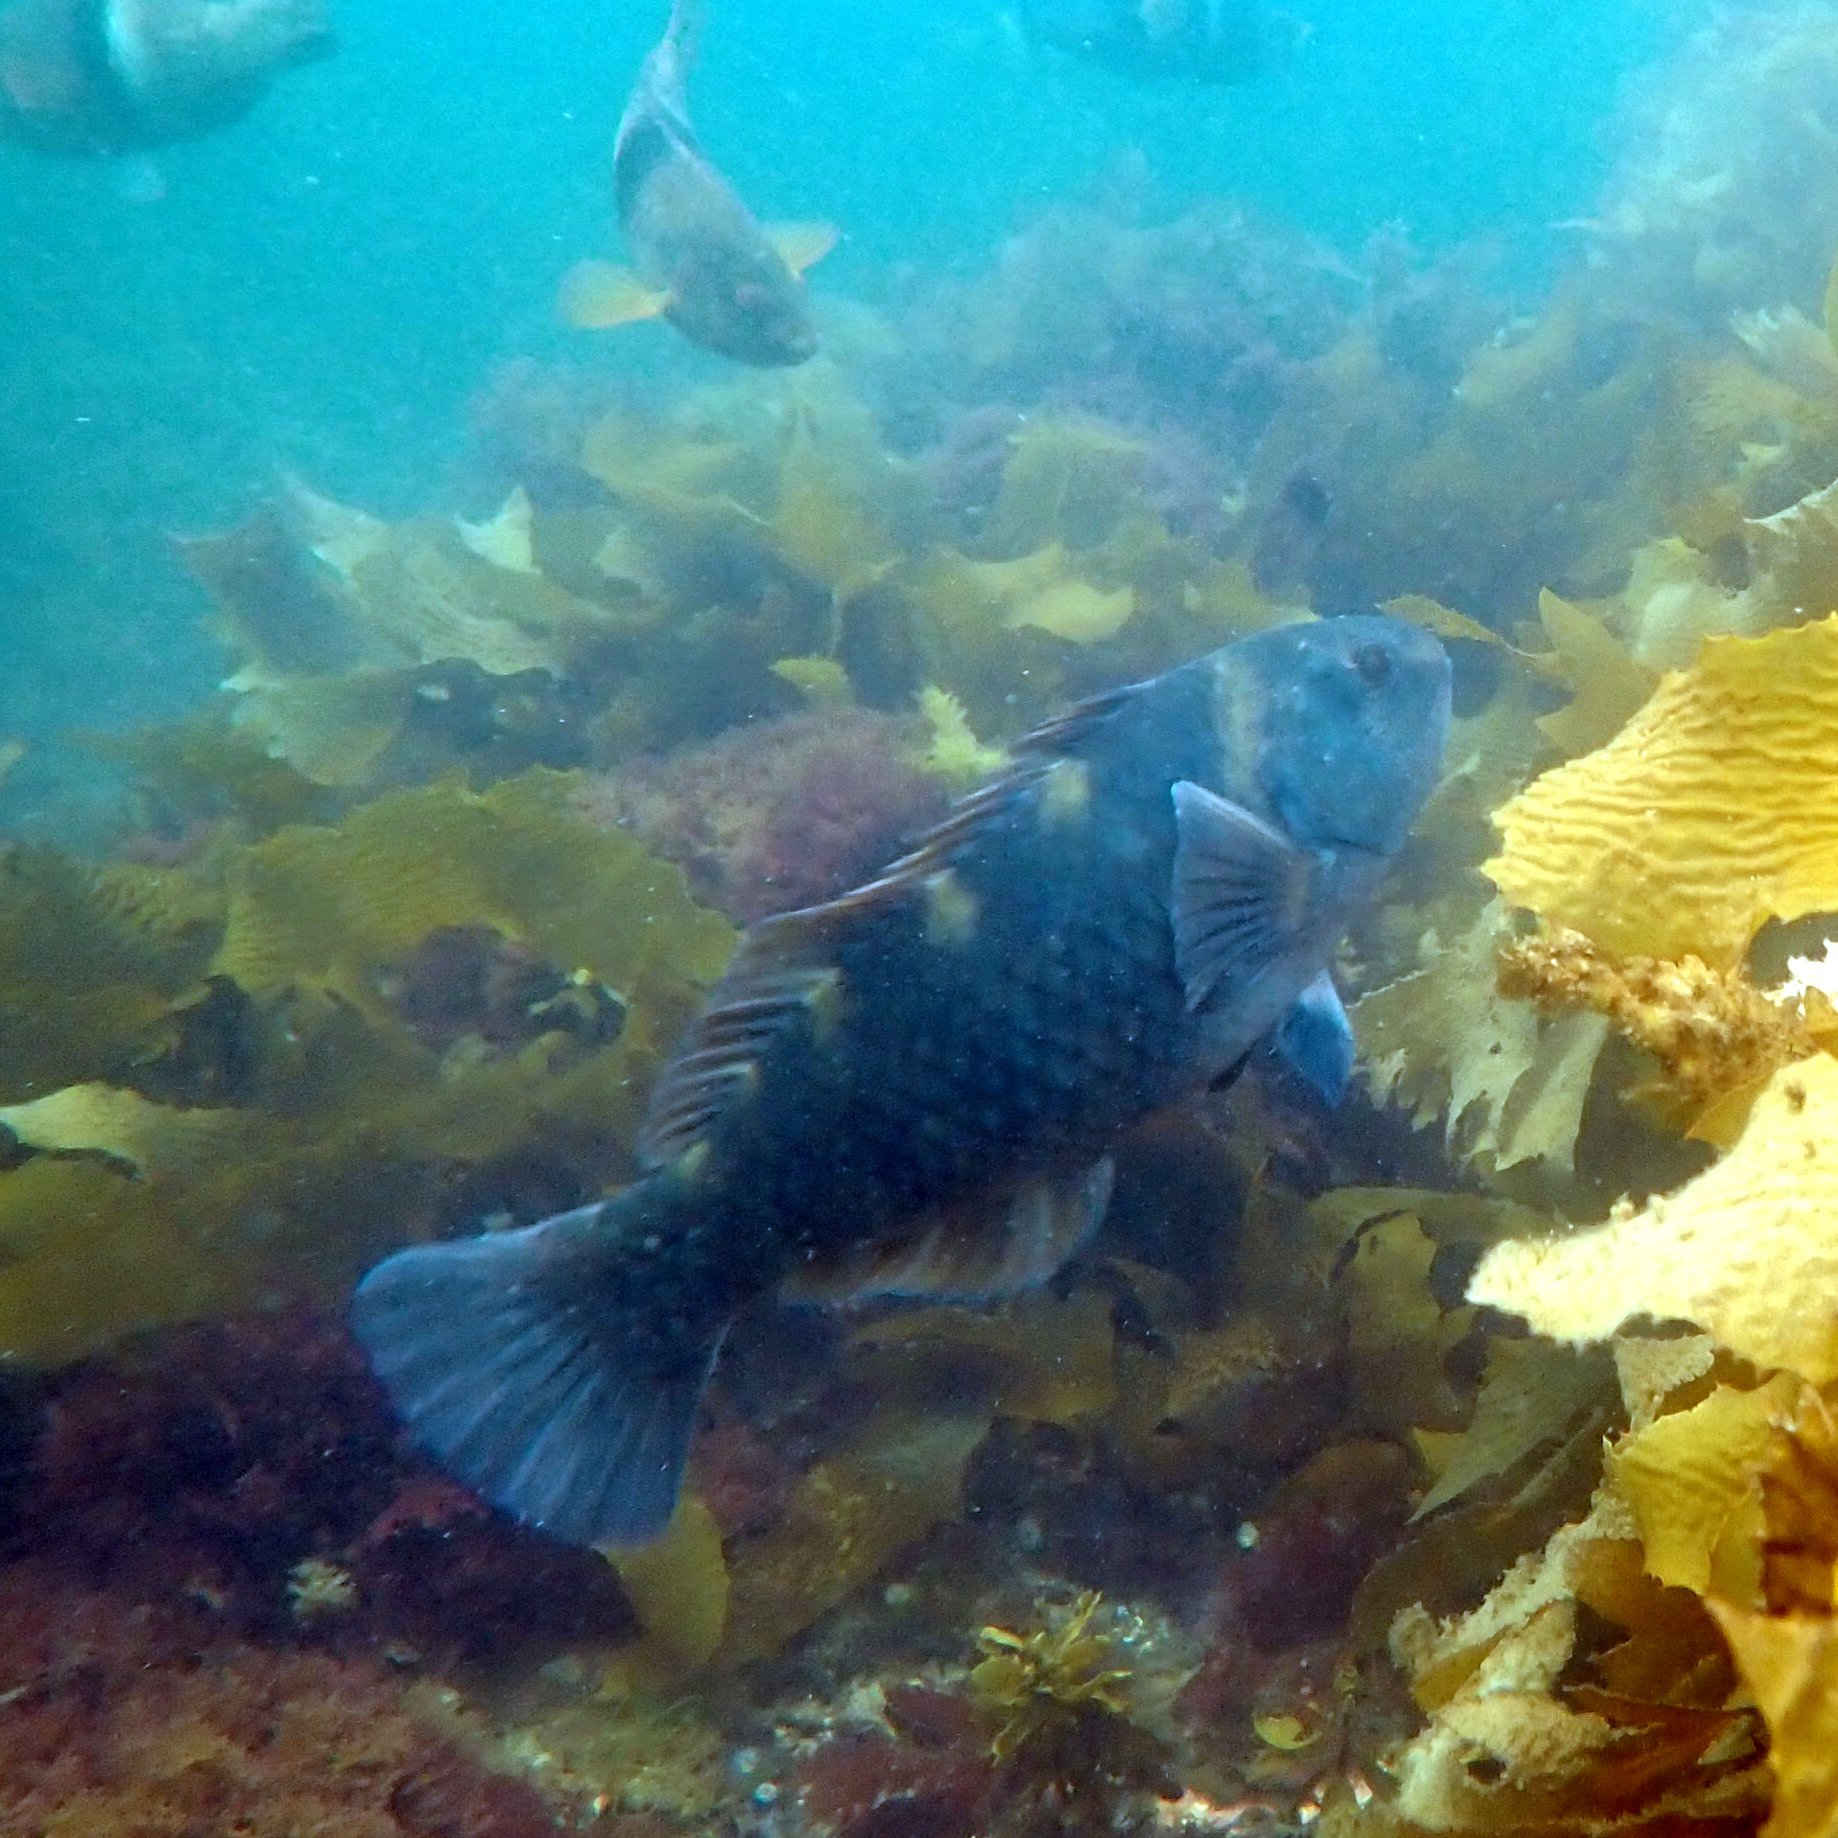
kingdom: Animalia
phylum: Chordata
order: Perciformes
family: Labridae
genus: Notolabrus
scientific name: Notolabrus fucicola
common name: Banded parrotfish
